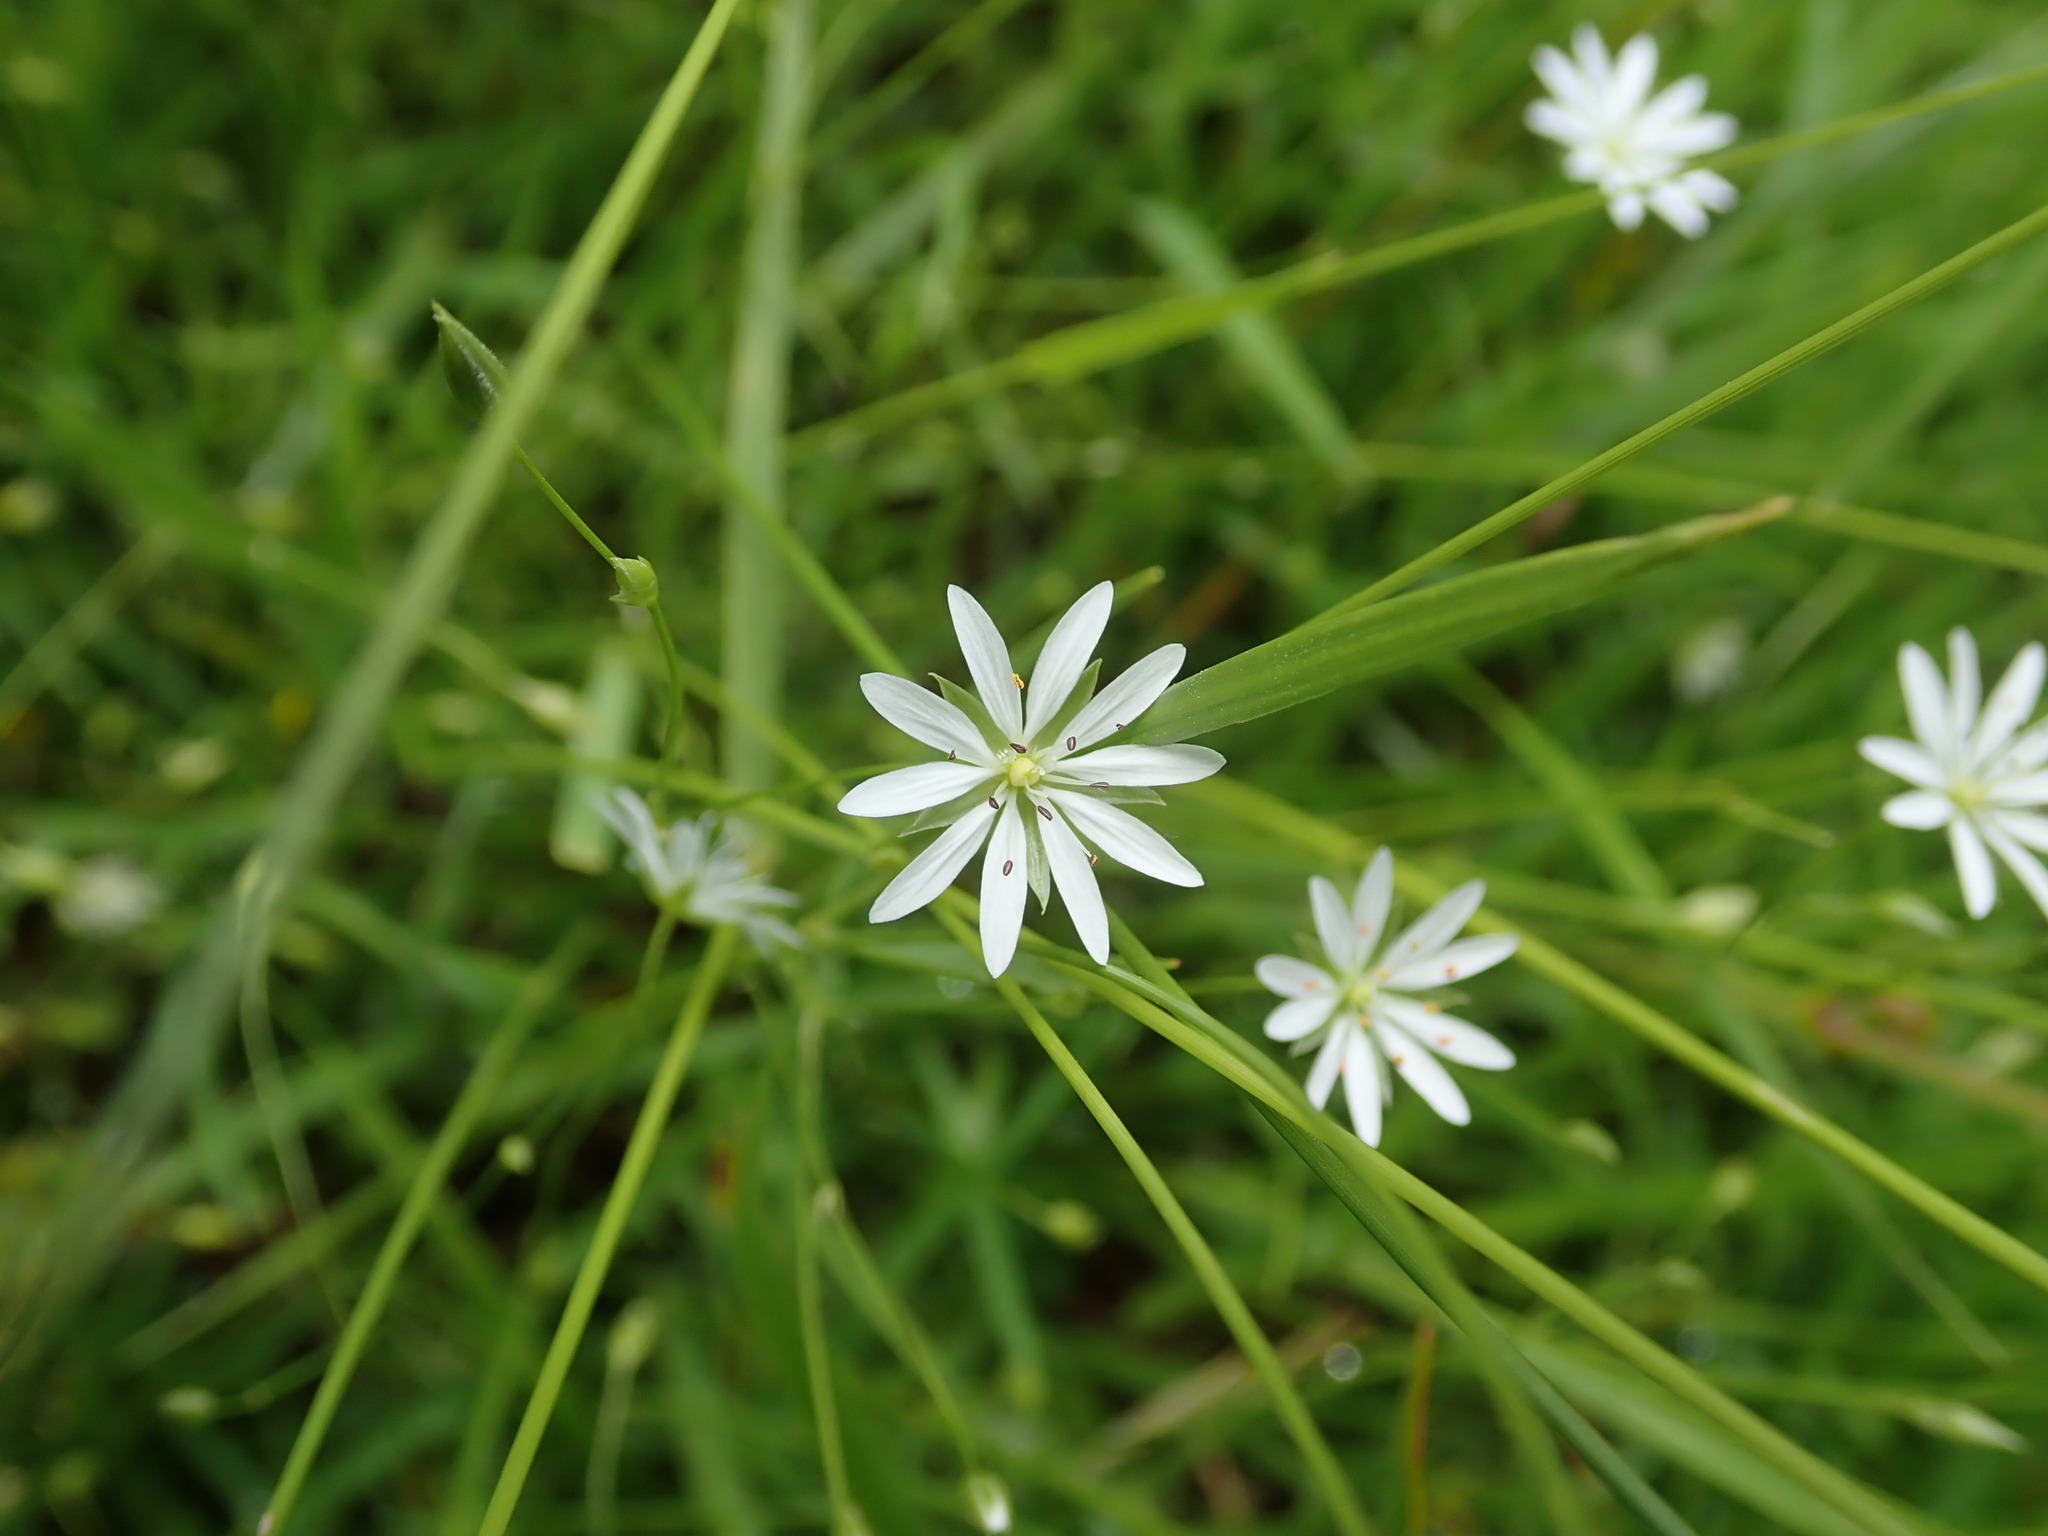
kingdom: Plantae
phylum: Tracheophyta
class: Magnoliopsida
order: Caryophyllales
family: Caryophyllaceae
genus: Stellaria
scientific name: Stellaria graminea
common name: Grass-like starwort
